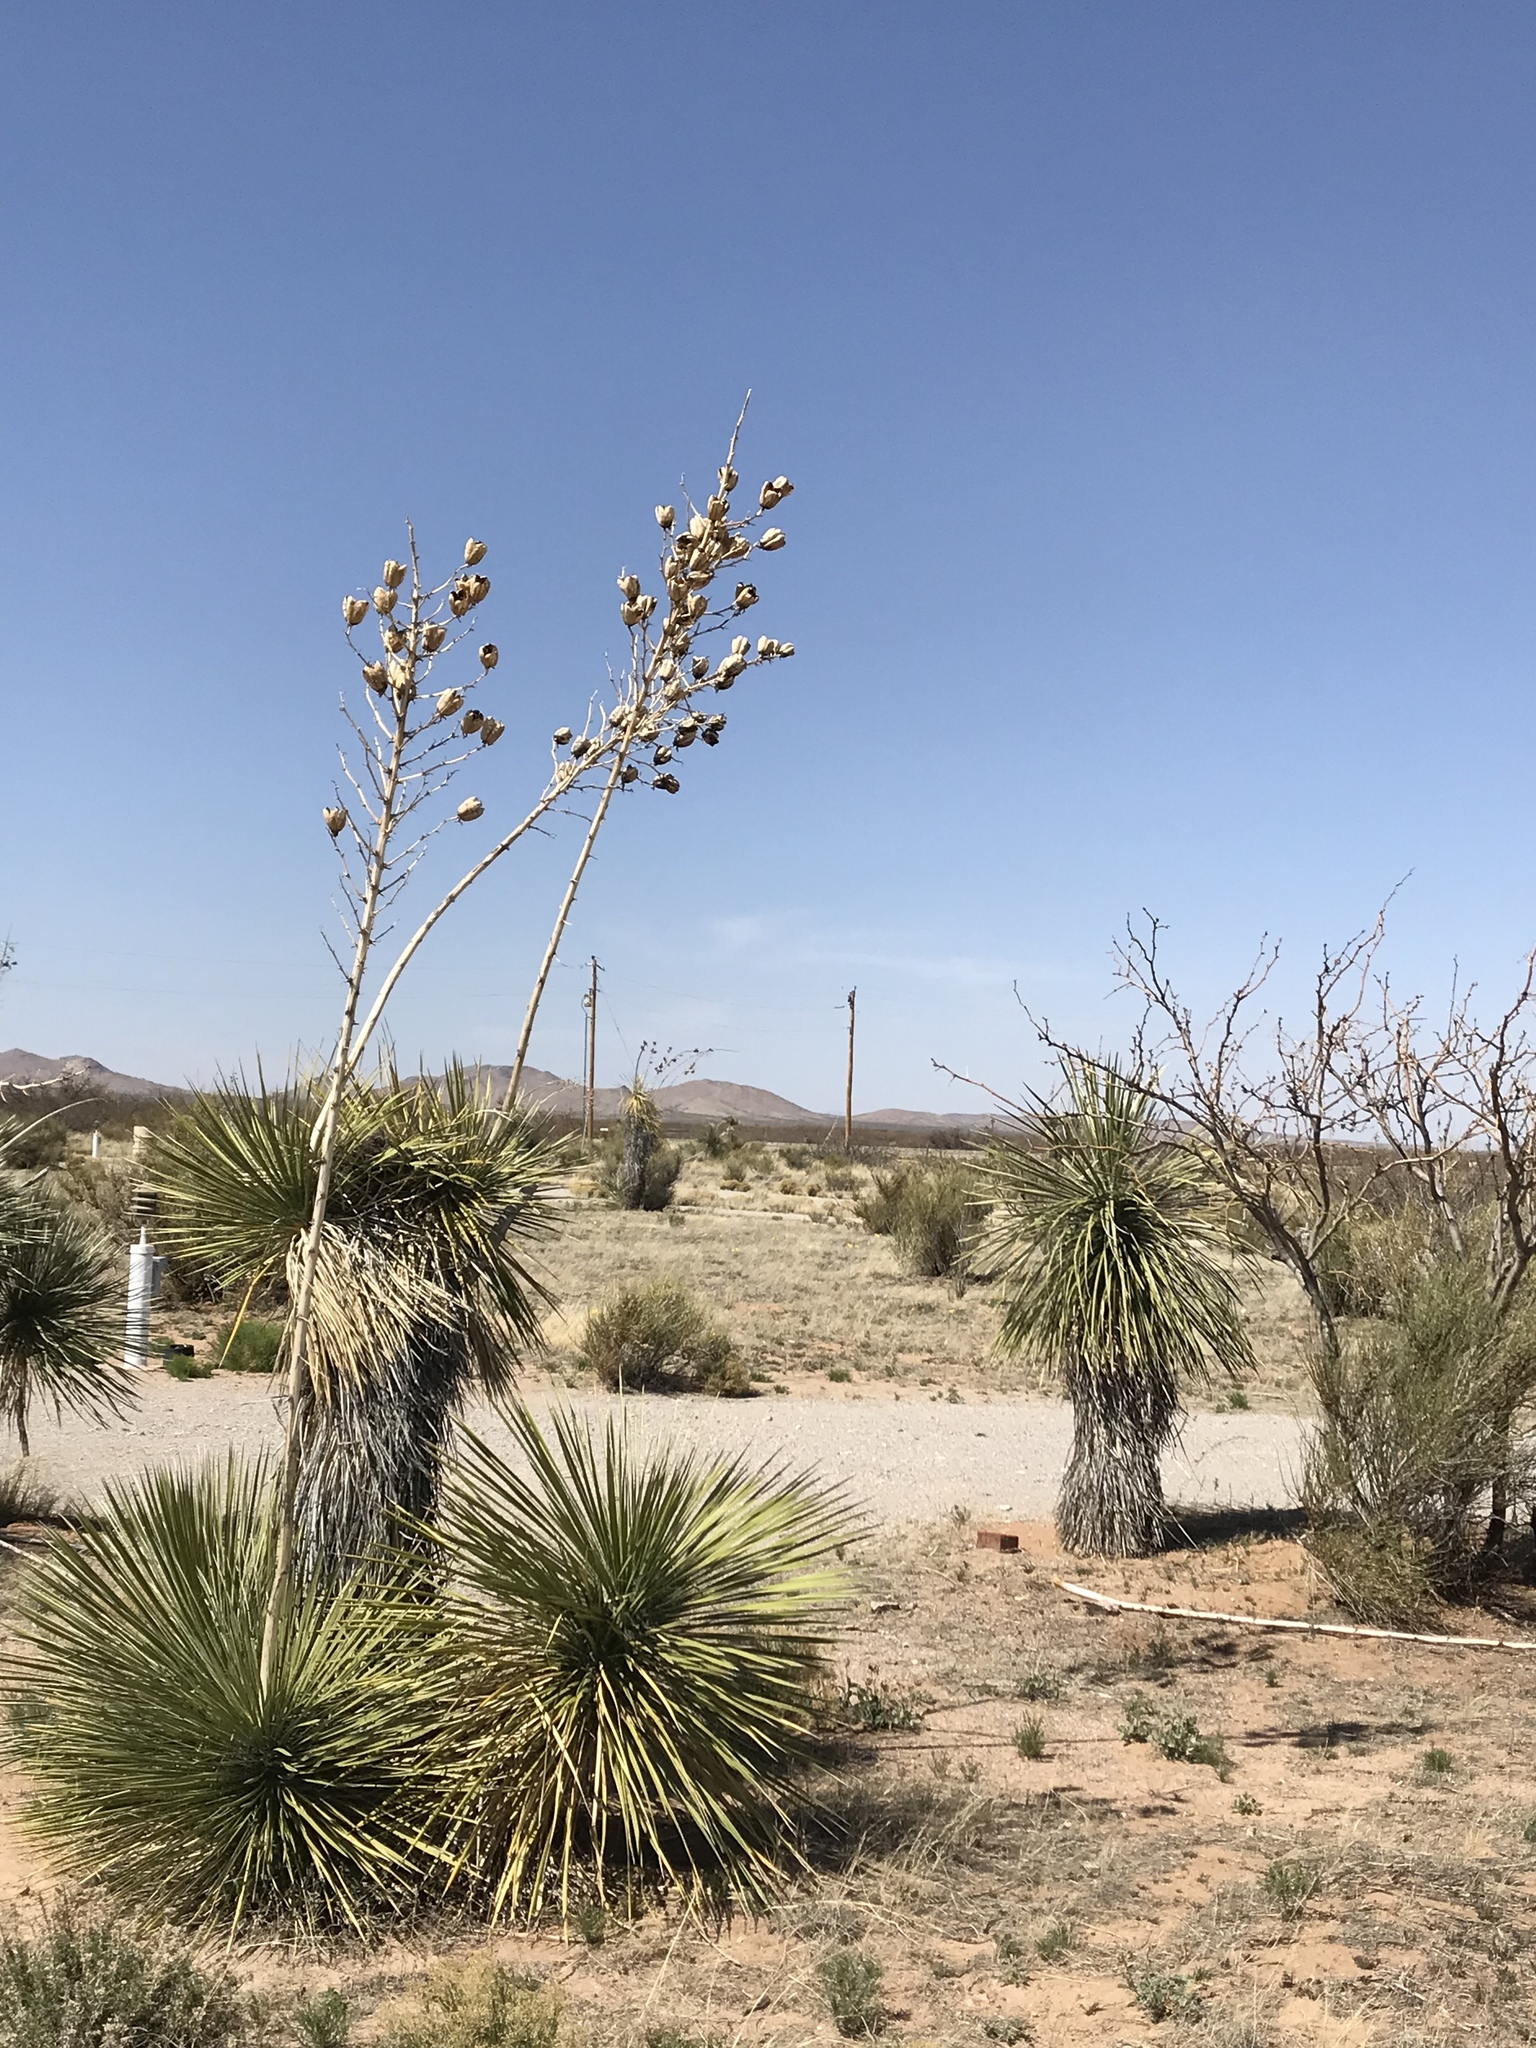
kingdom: Plantae
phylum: Tracheophyta
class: Liliopsida
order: Asparagales
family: Asparagaceae
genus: Yucca
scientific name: Yucca elata
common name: Palmella
